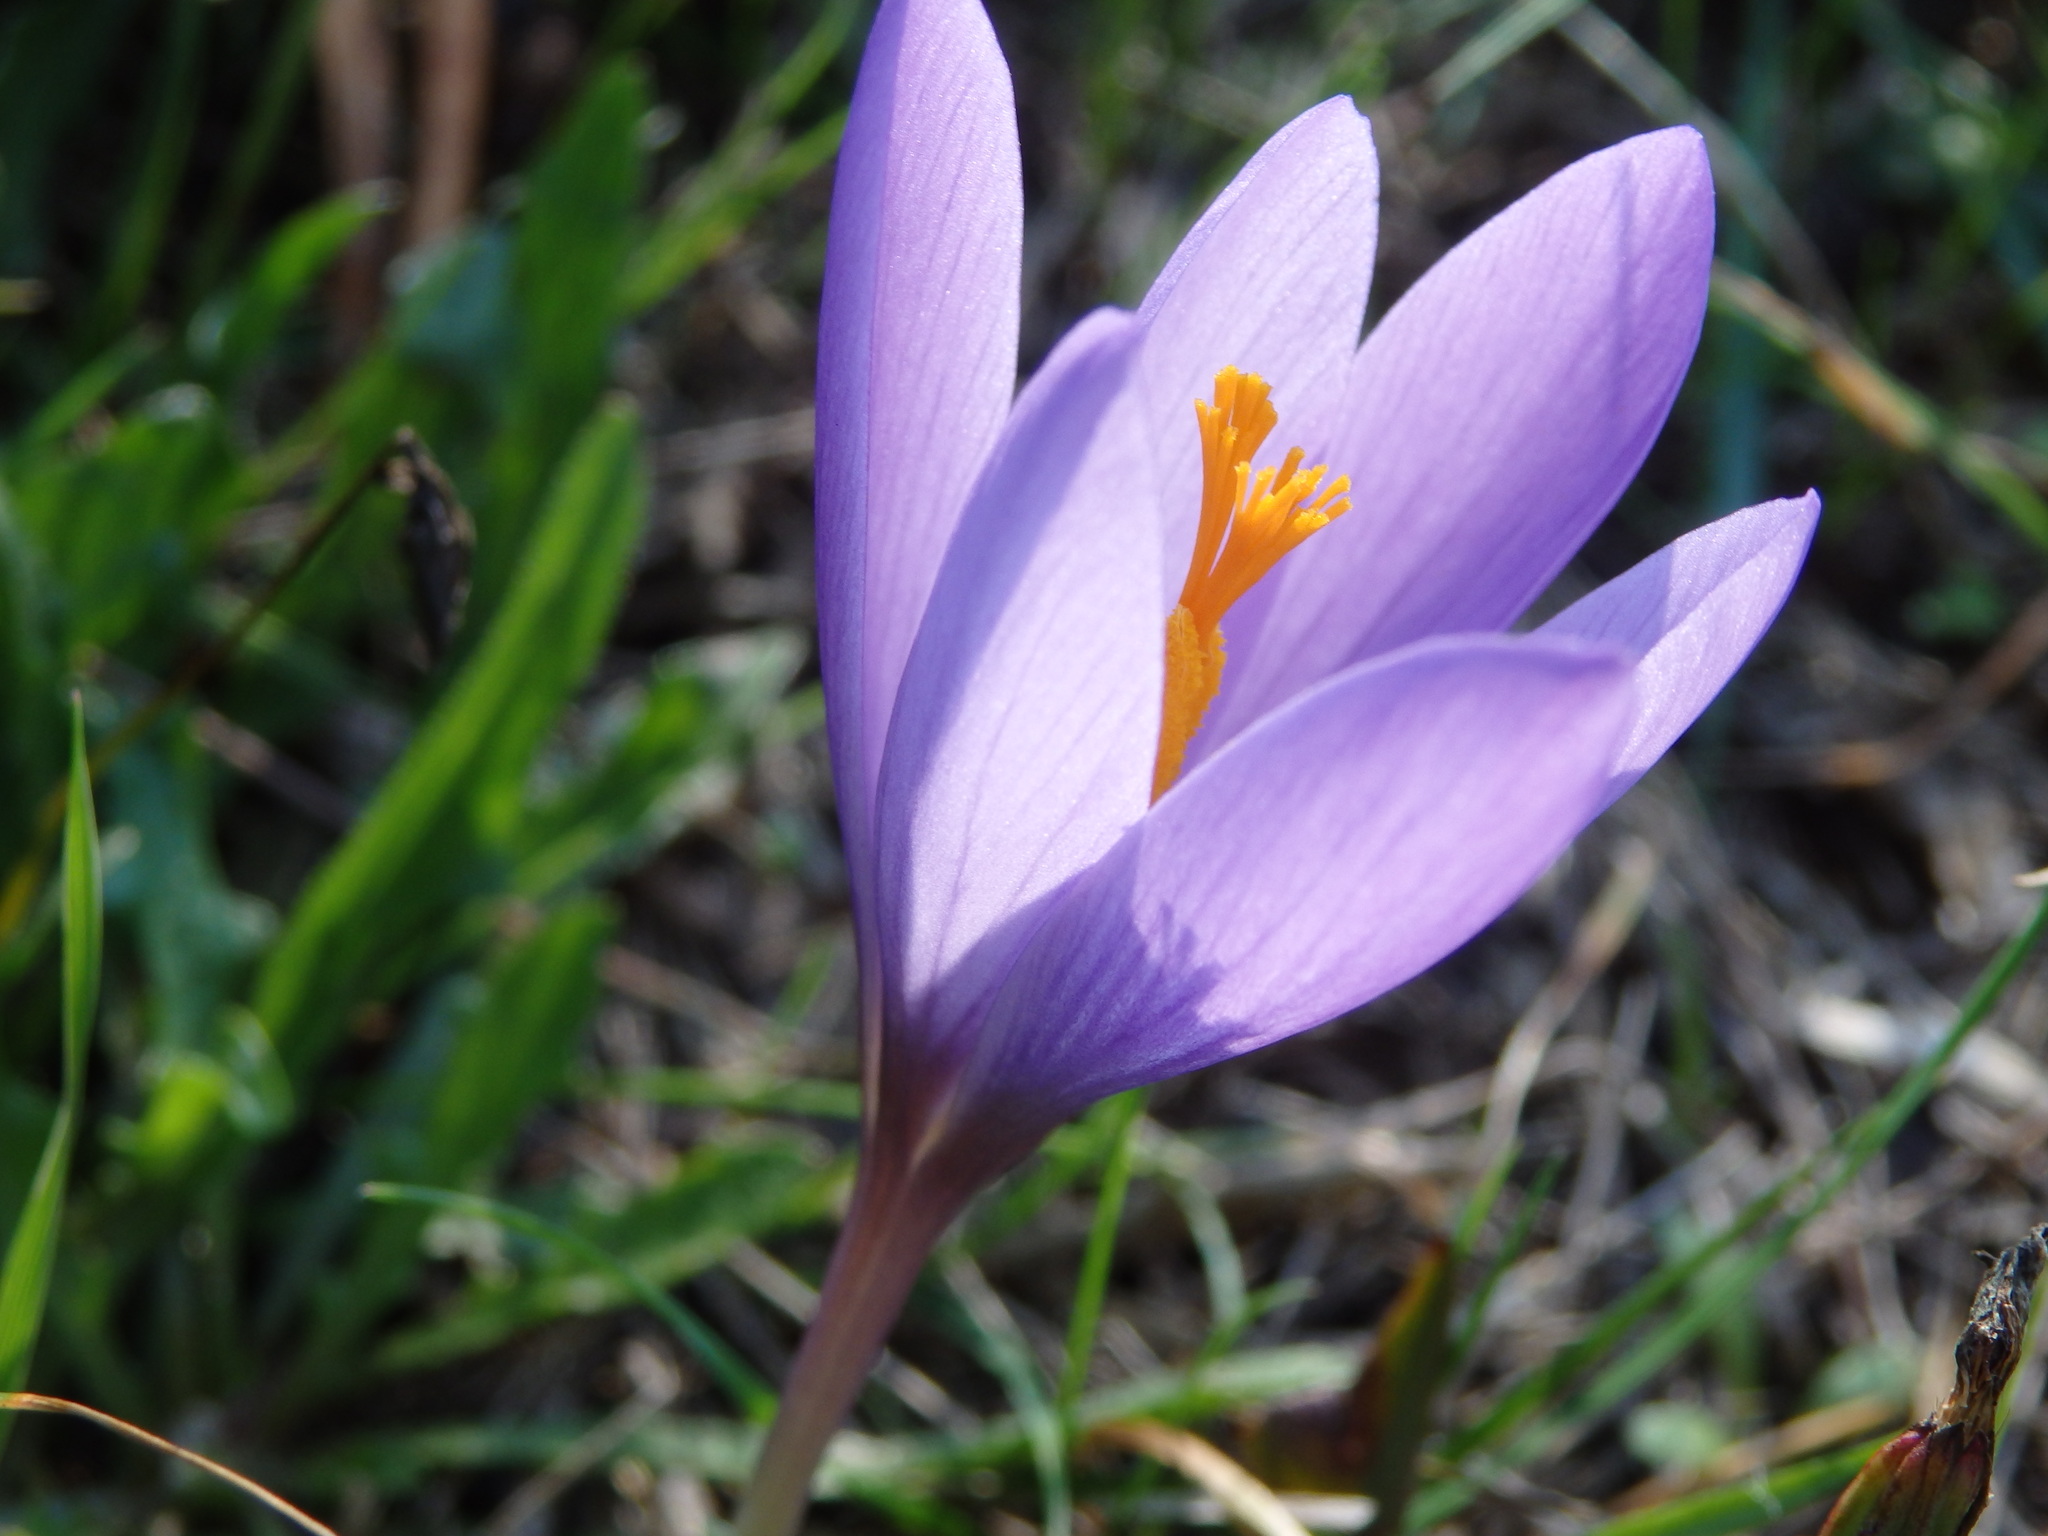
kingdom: Plantae
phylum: Tracheophyta
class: Liliopsida
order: Asparagales
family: Iridaceae
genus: Crocus
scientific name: Crocus serotinus
